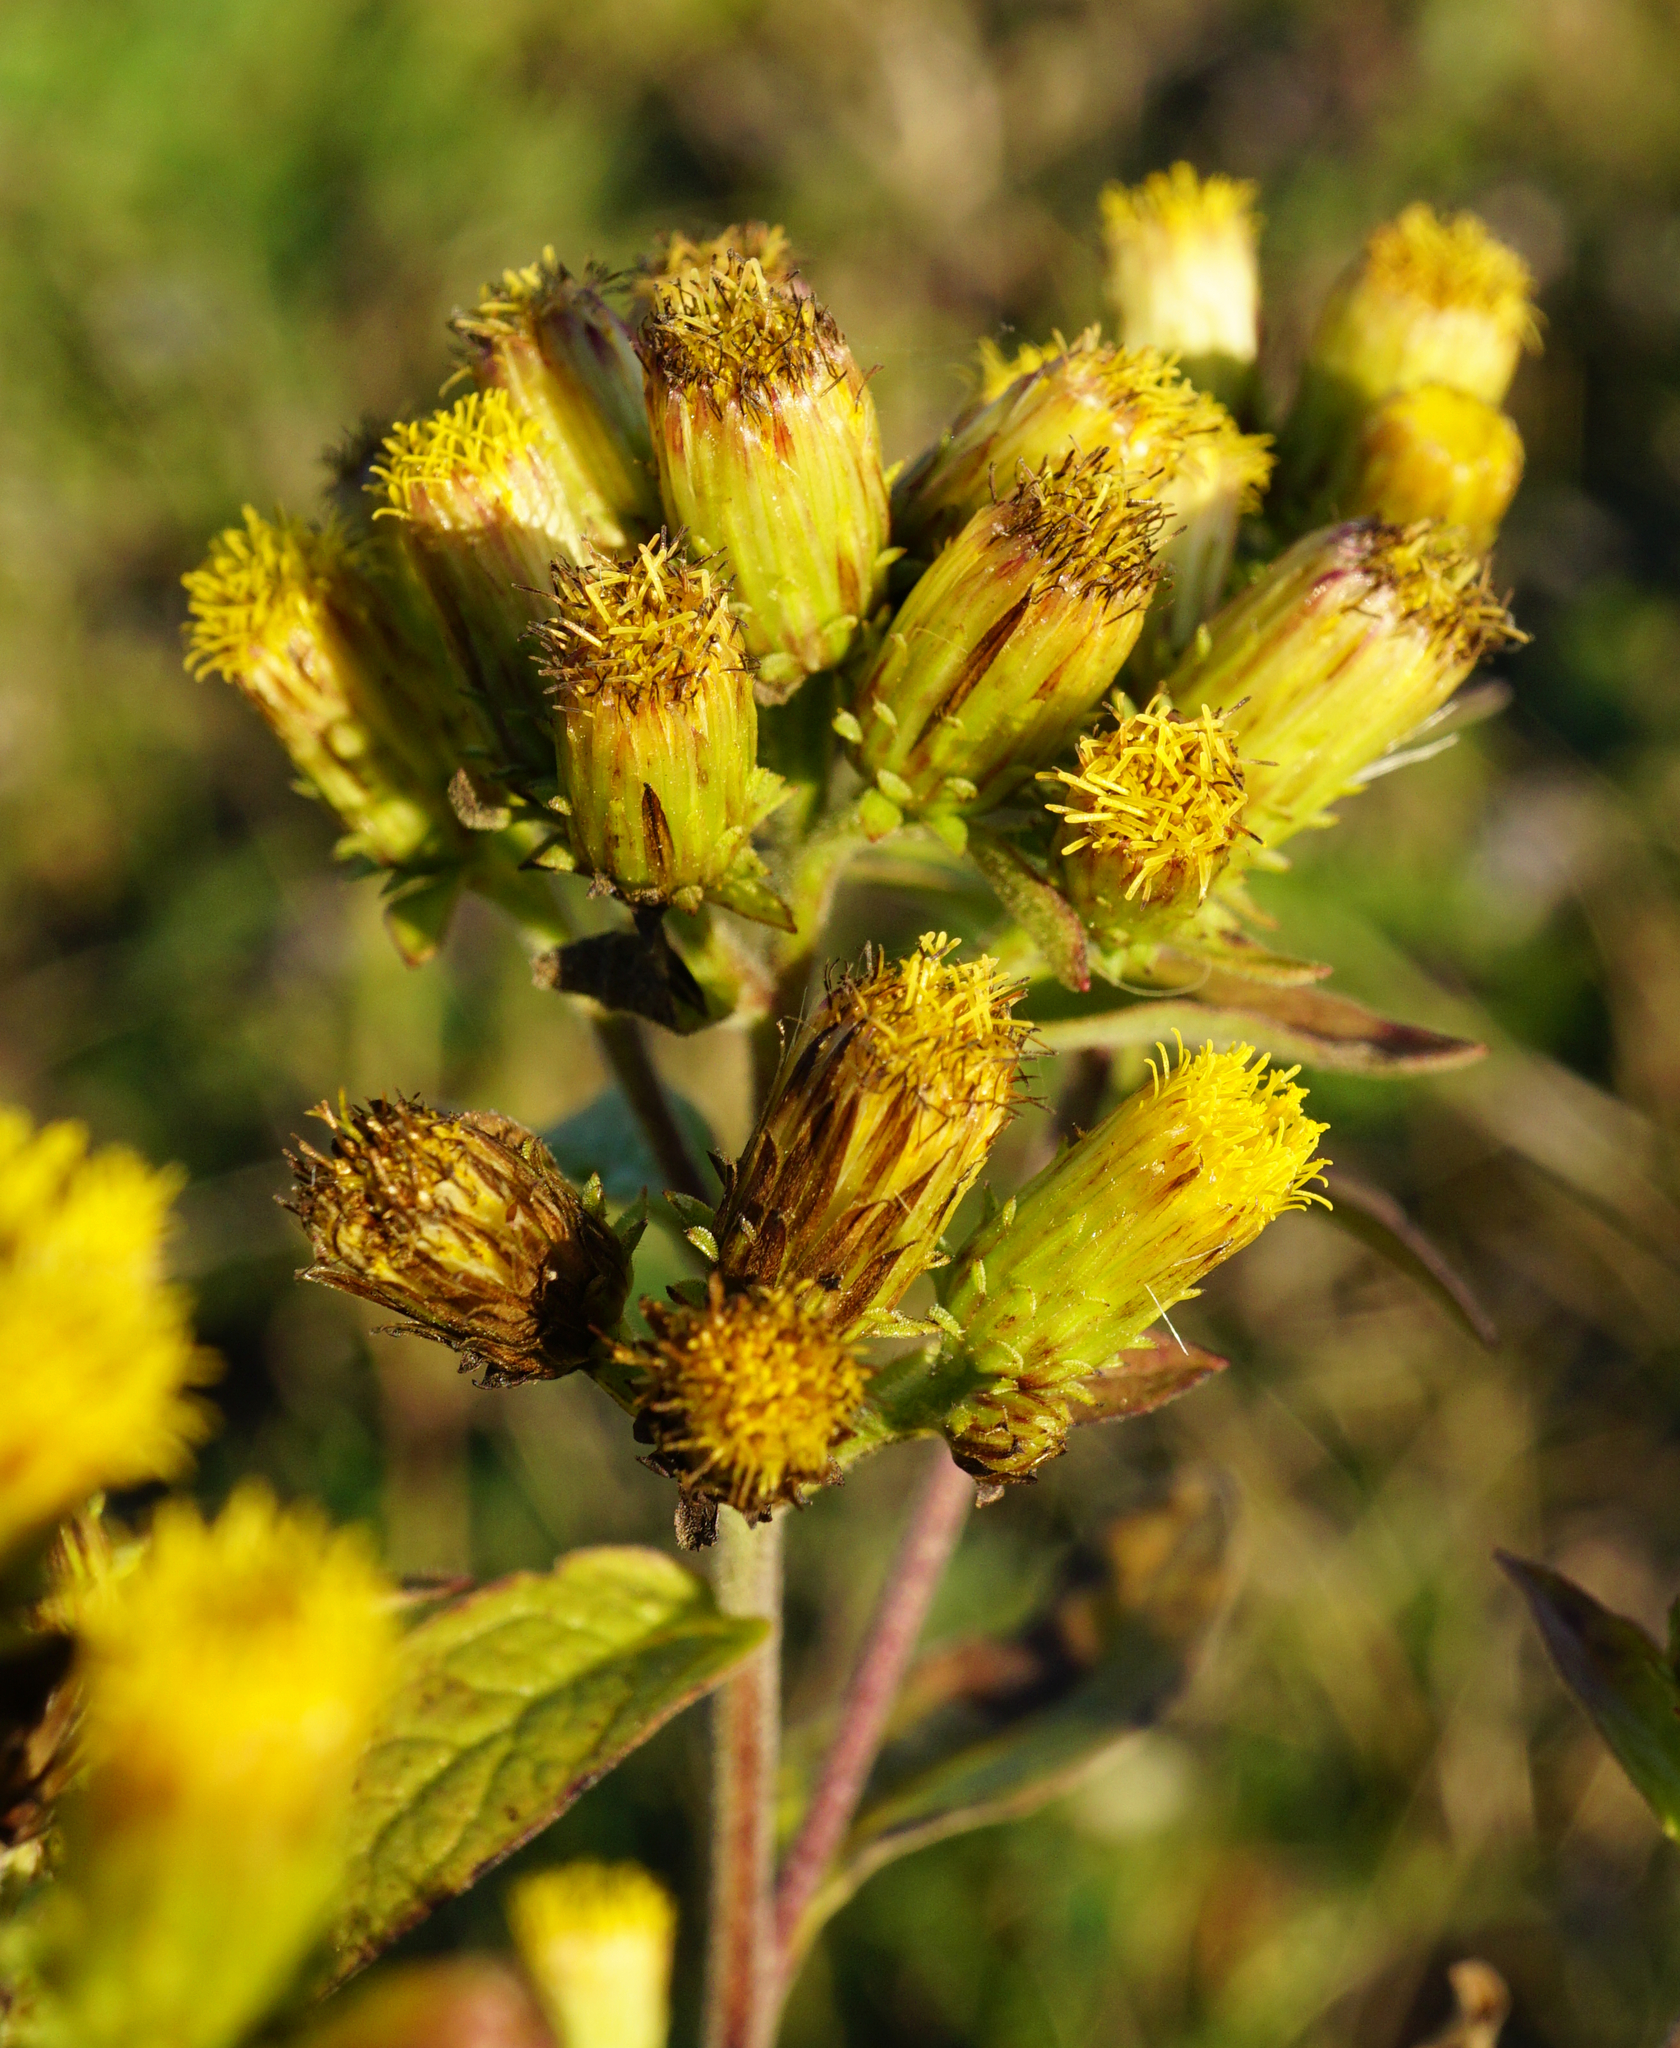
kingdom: Plantae
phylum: Tracheophyta
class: Magnoliopsida
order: Asterales
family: Asteraceae
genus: Pentanema
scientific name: Pentanema squarrosum
